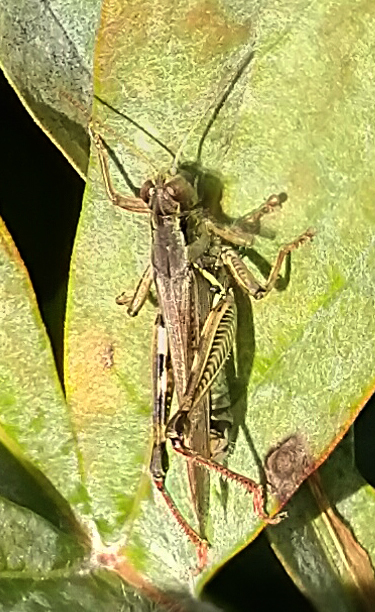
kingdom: Animalia
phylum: Arthropoda
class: Insecta
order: Orthoptera
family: Acrididae
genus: Melanoplus
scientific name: Melanoplus femurrubrum
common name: Red-legged grasshopper
